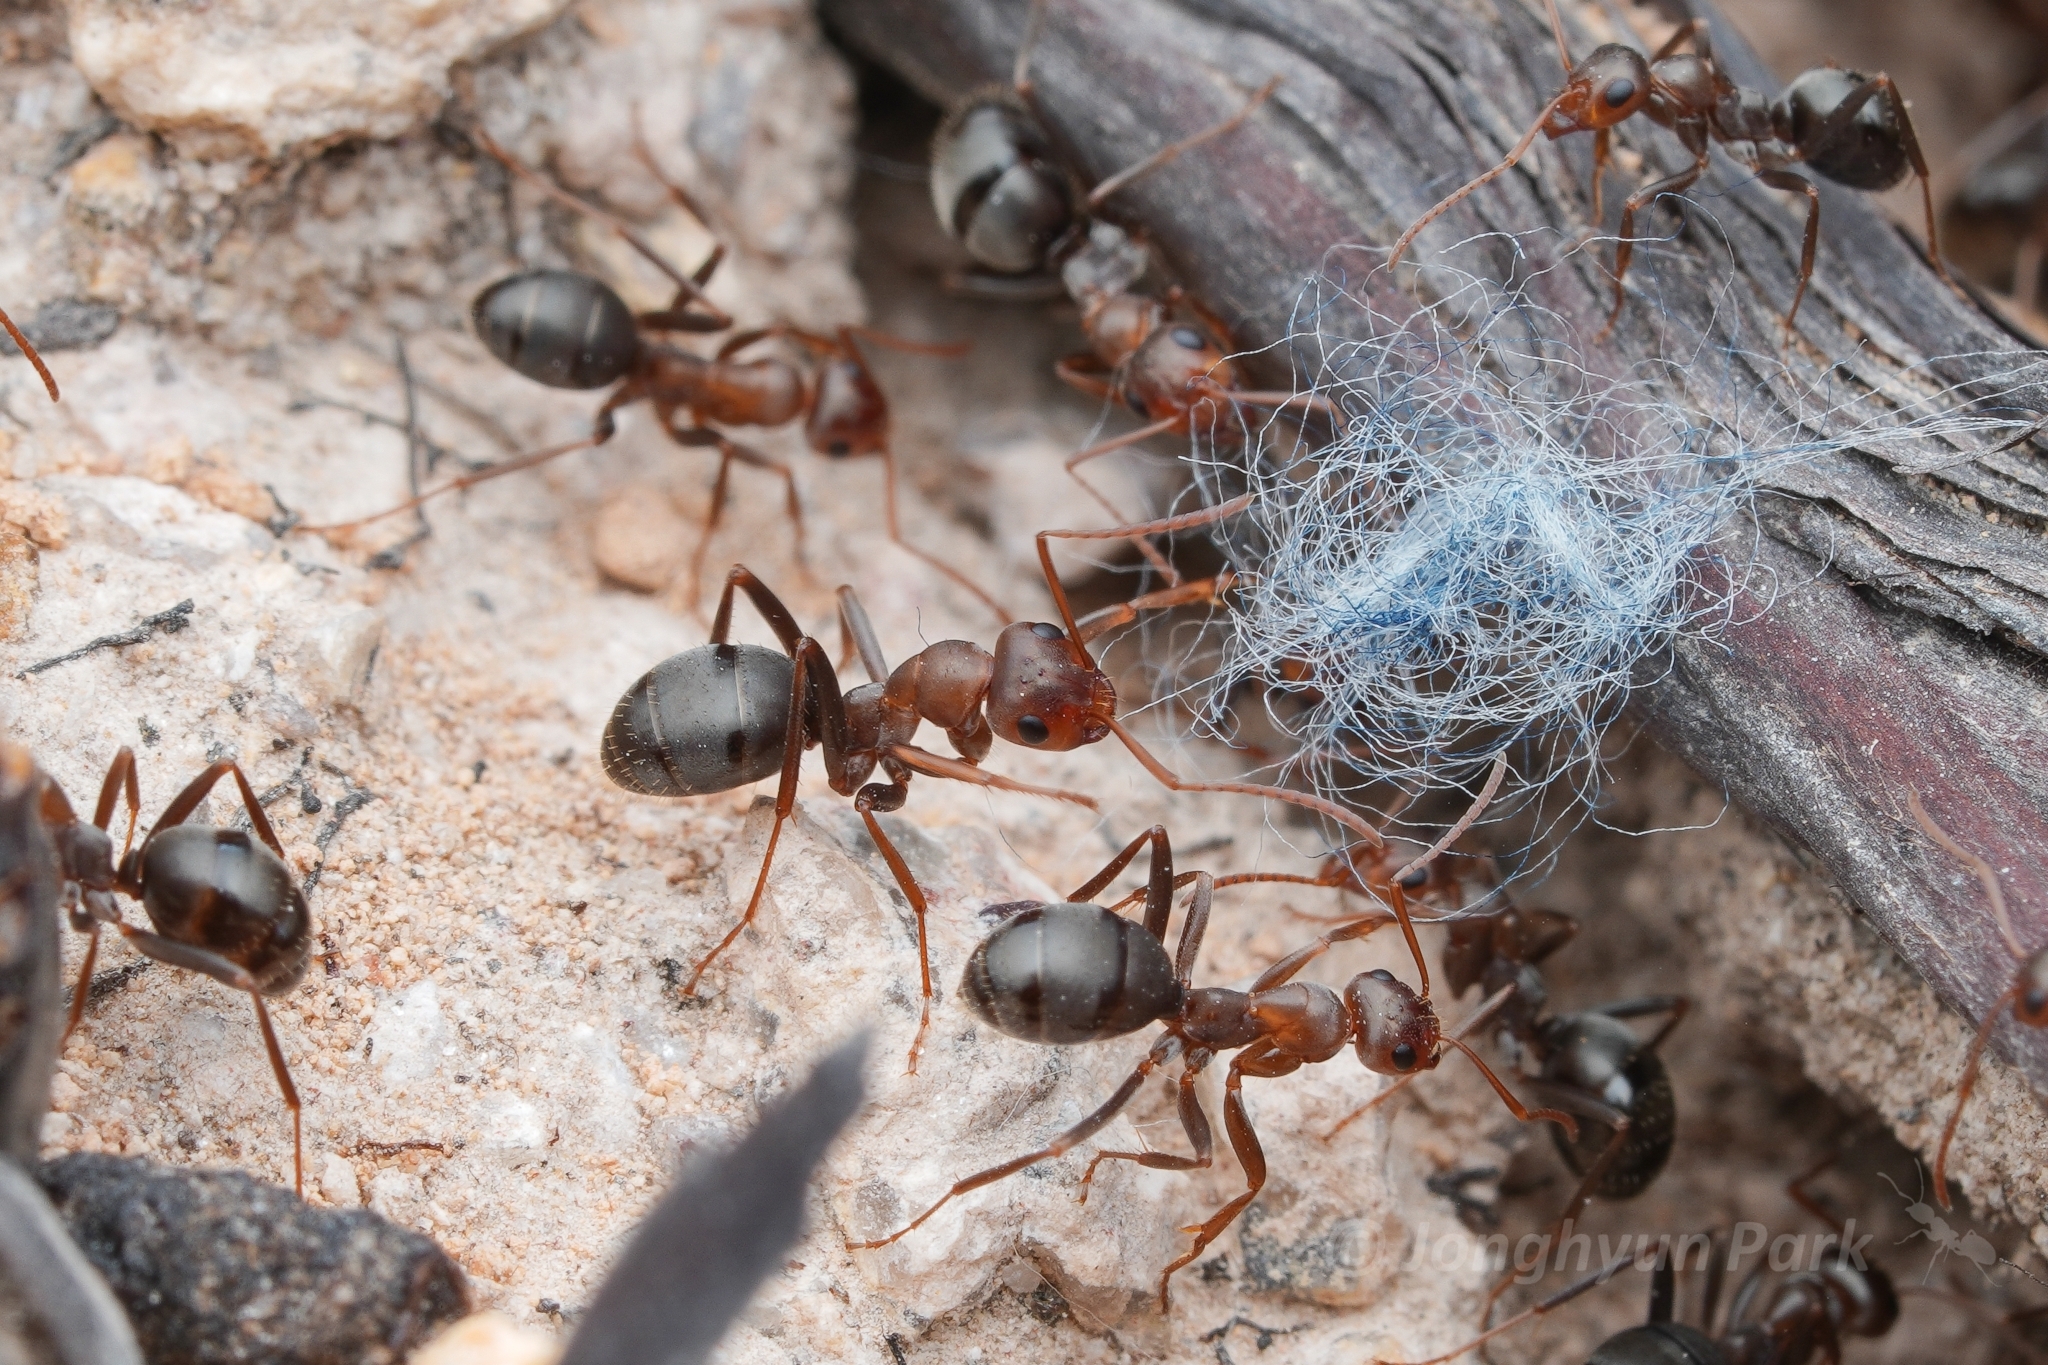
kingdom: Animalia
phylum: Arthropoda
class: Insecta
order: Hymenoptera
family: Formicidae
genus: Formica
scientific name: Formica gnava
